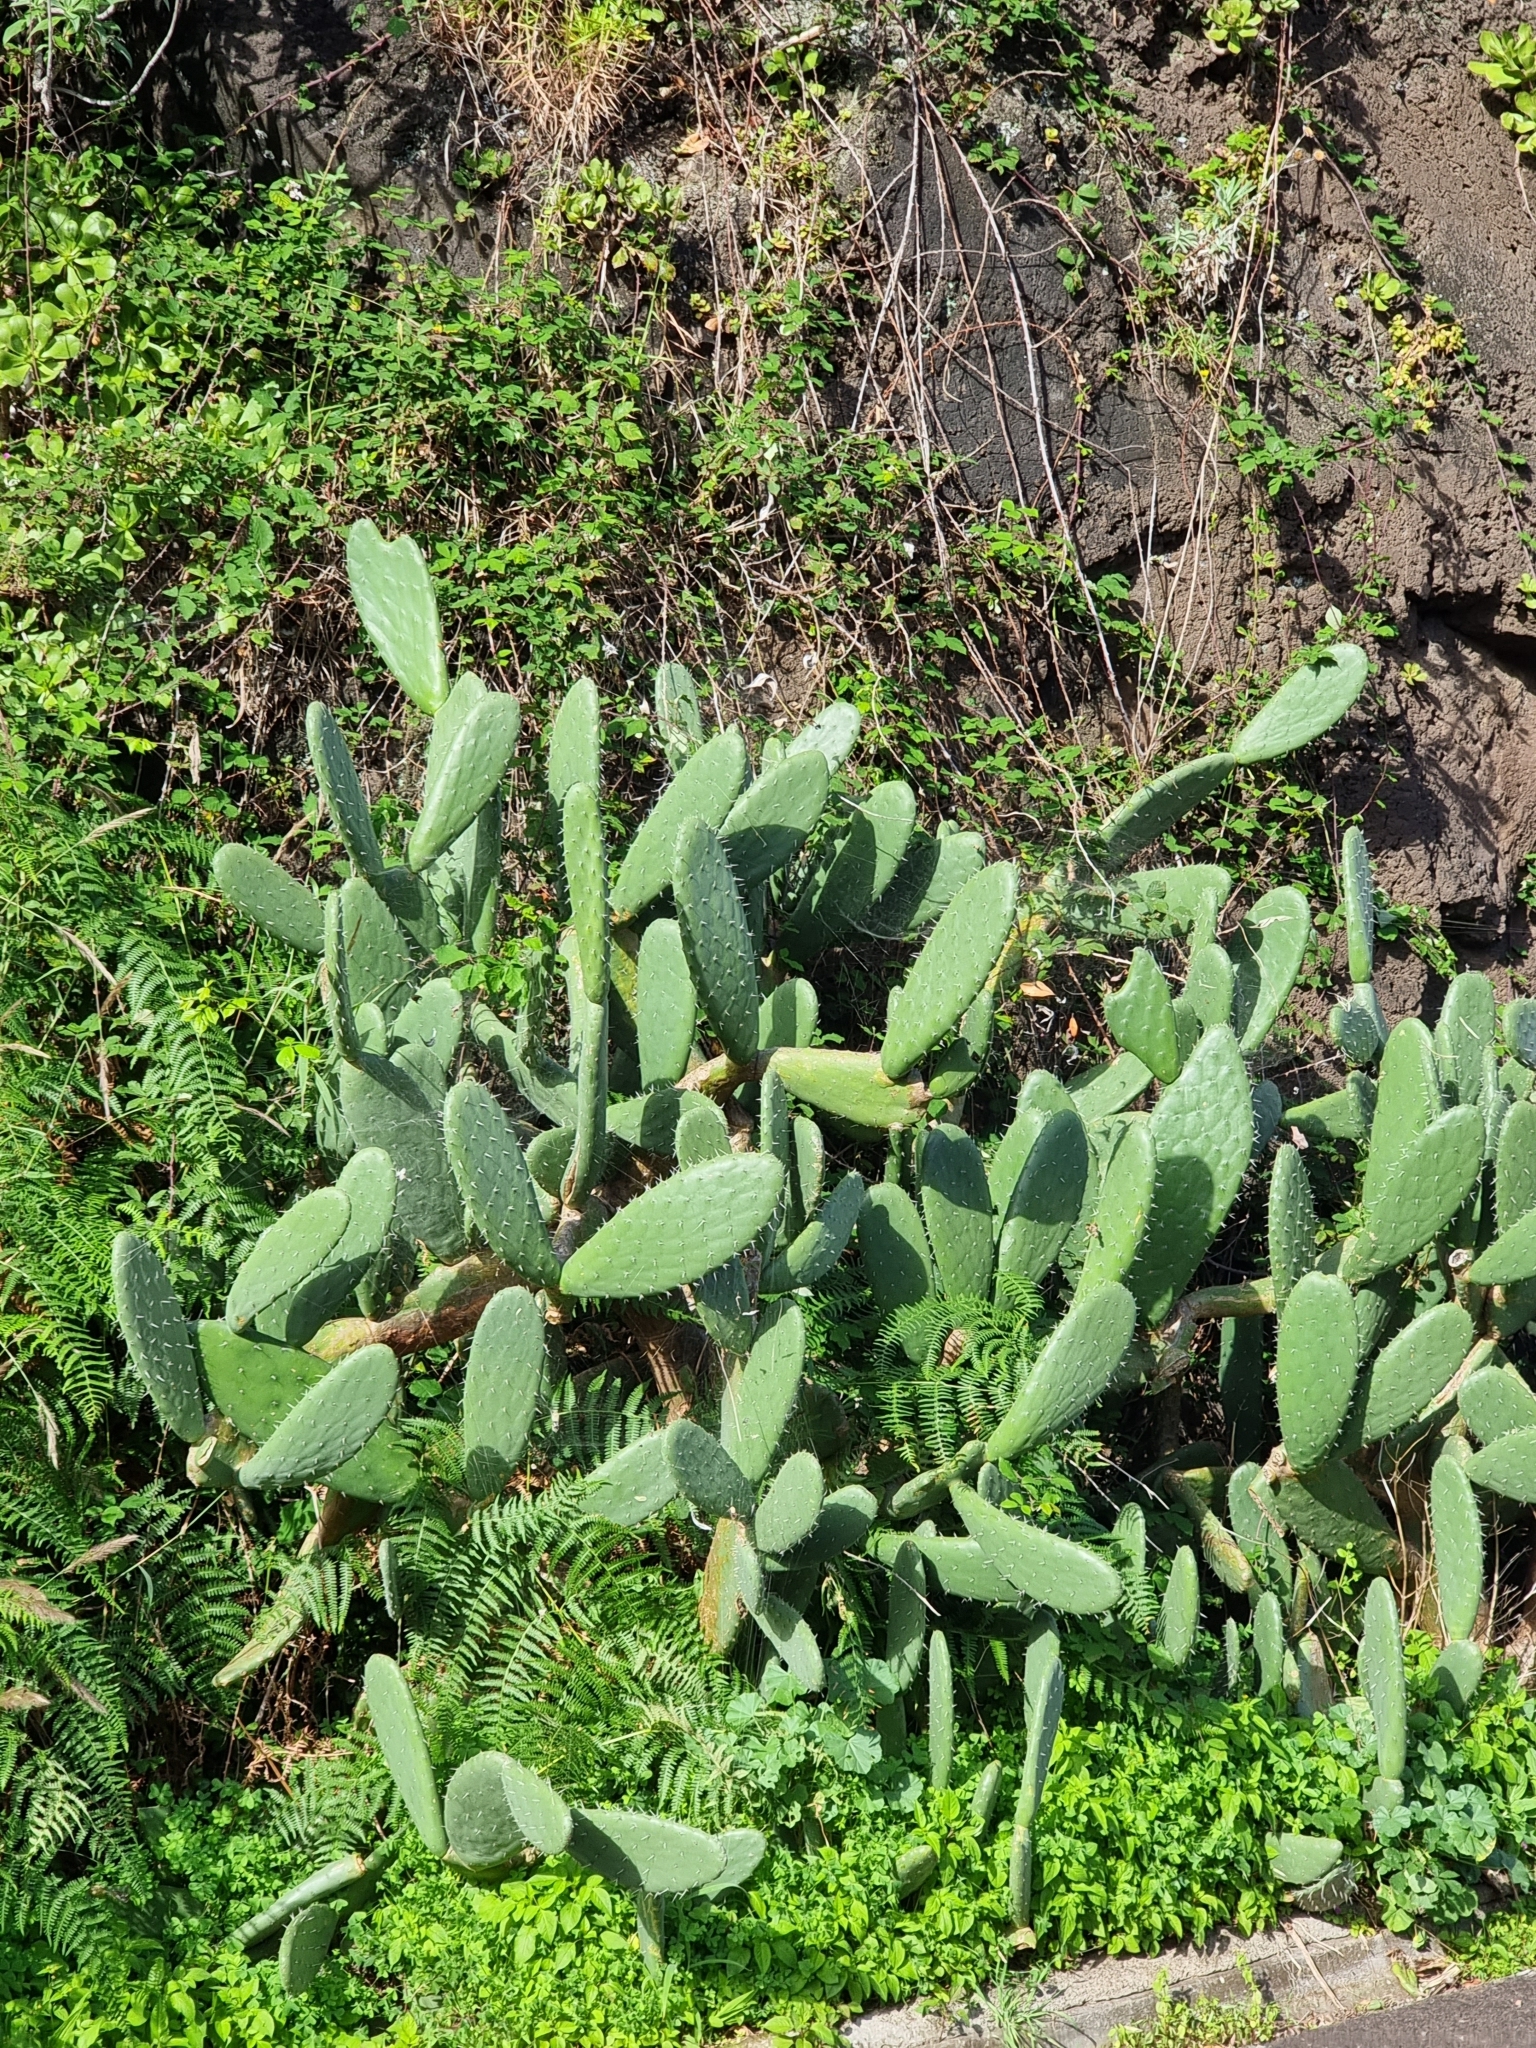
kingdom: Plantae
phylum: Tracheophyta
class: Magnoliopsida
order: Caryophyllales
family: Cactaceae
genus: Opuntia
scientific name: Opuntia ficus-indica
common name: Barbary fig
